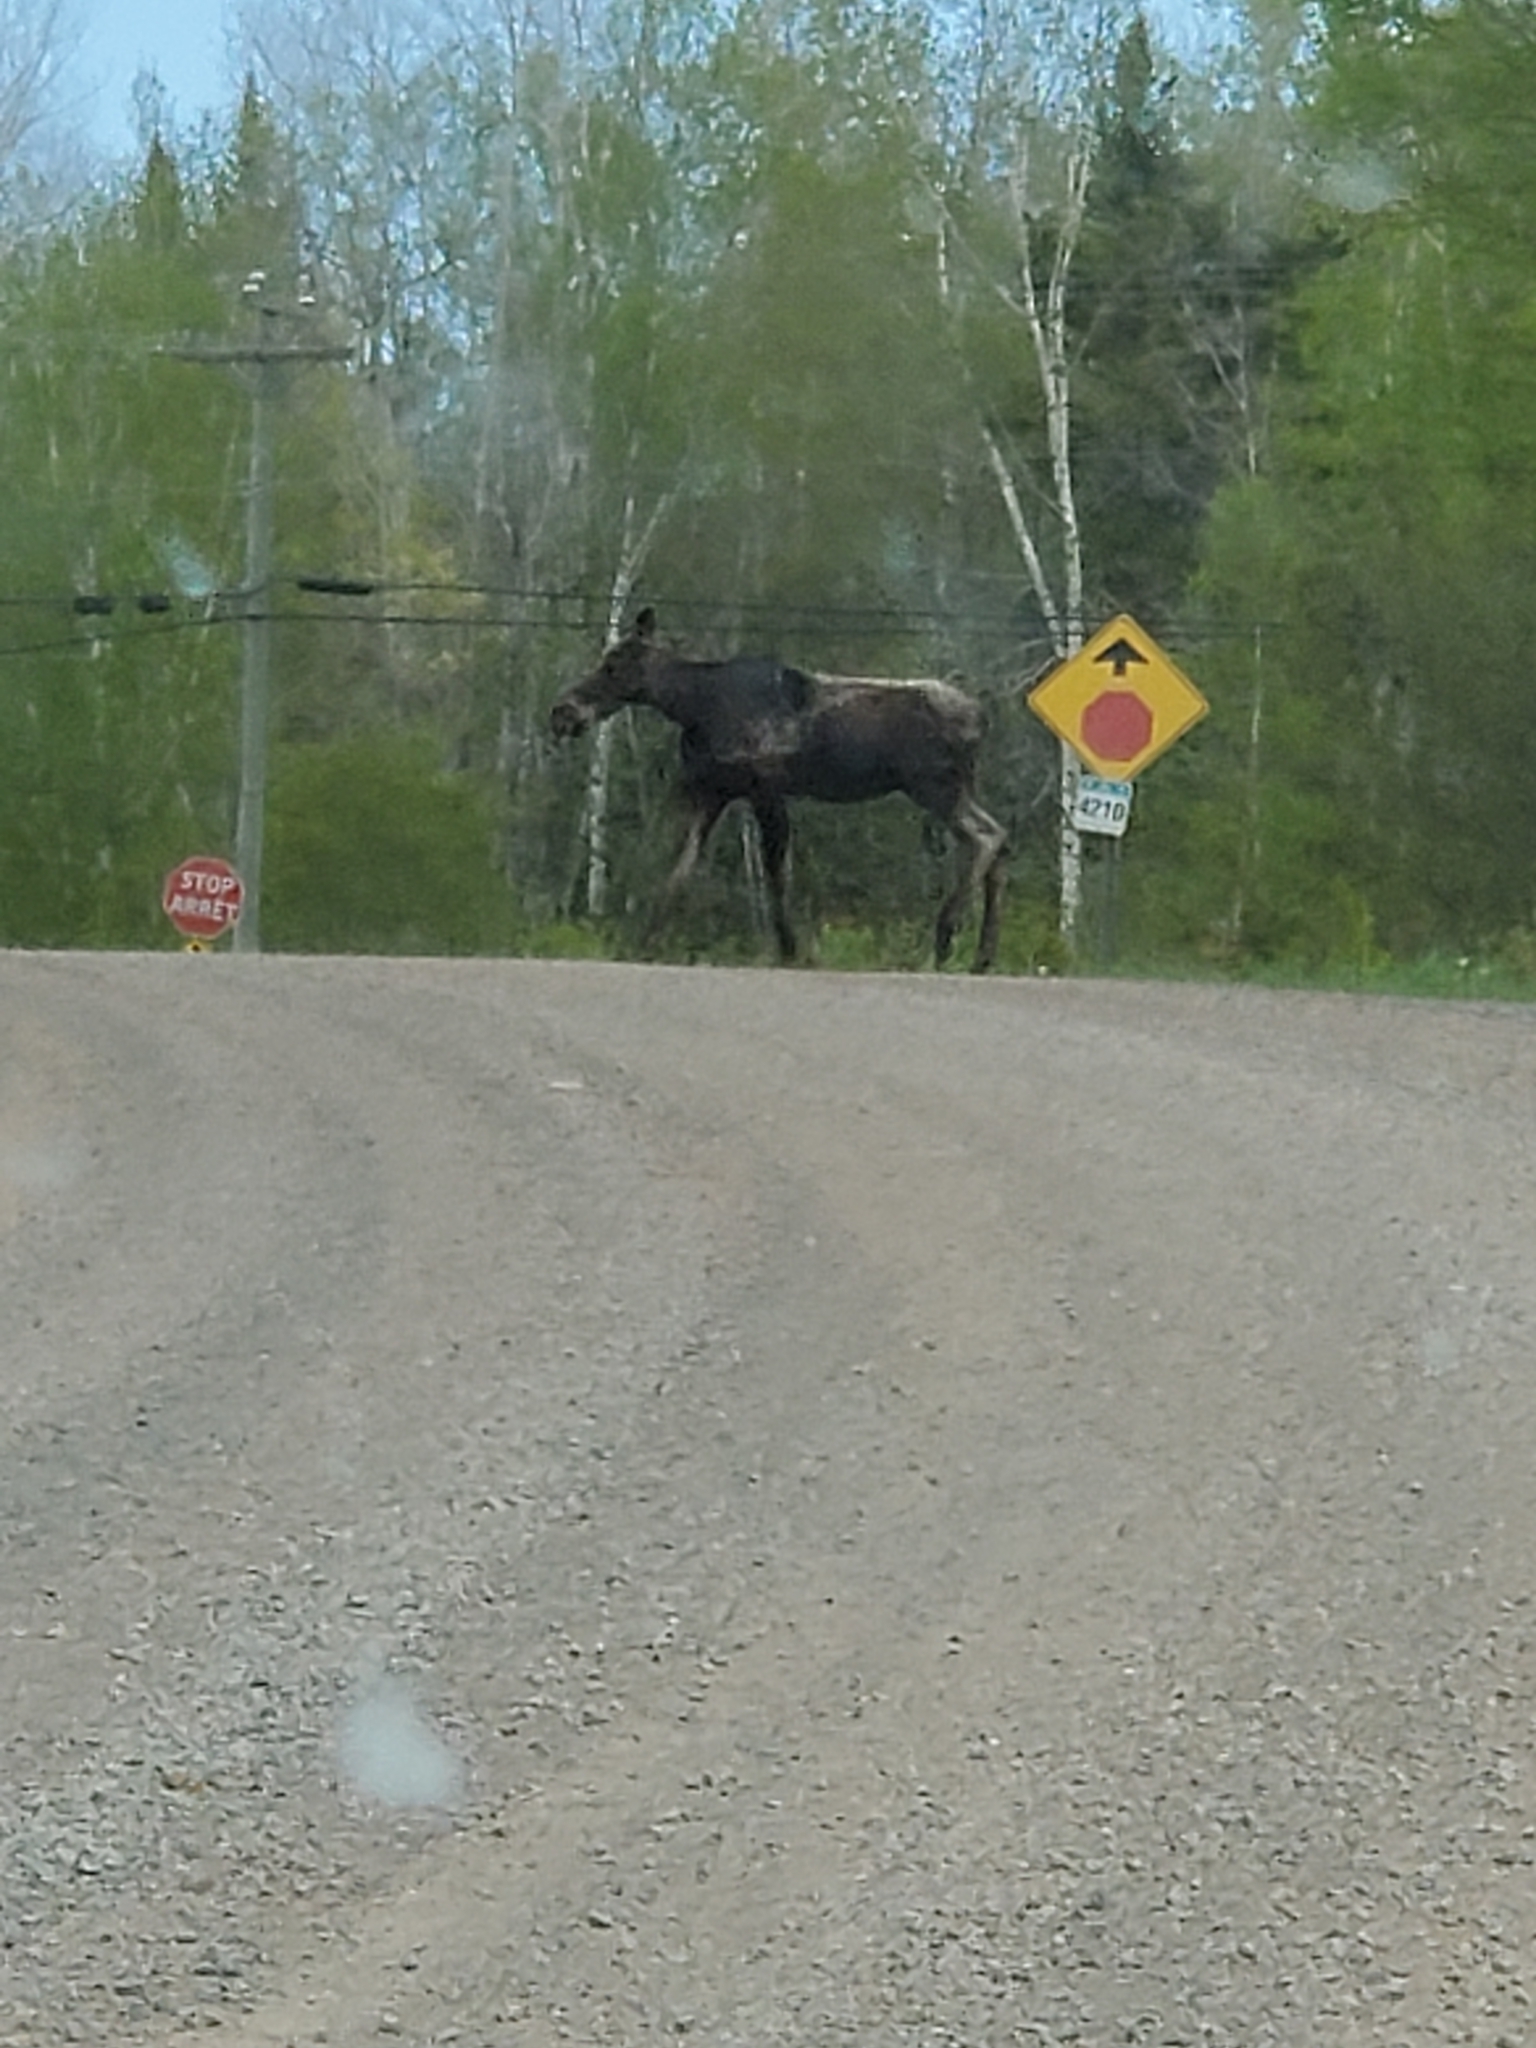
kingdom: Animalia
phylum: Chordata
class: Mammalia
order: Artiodactyla
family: Cervidae
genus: Alces
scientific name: Alces alces
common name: Moose
